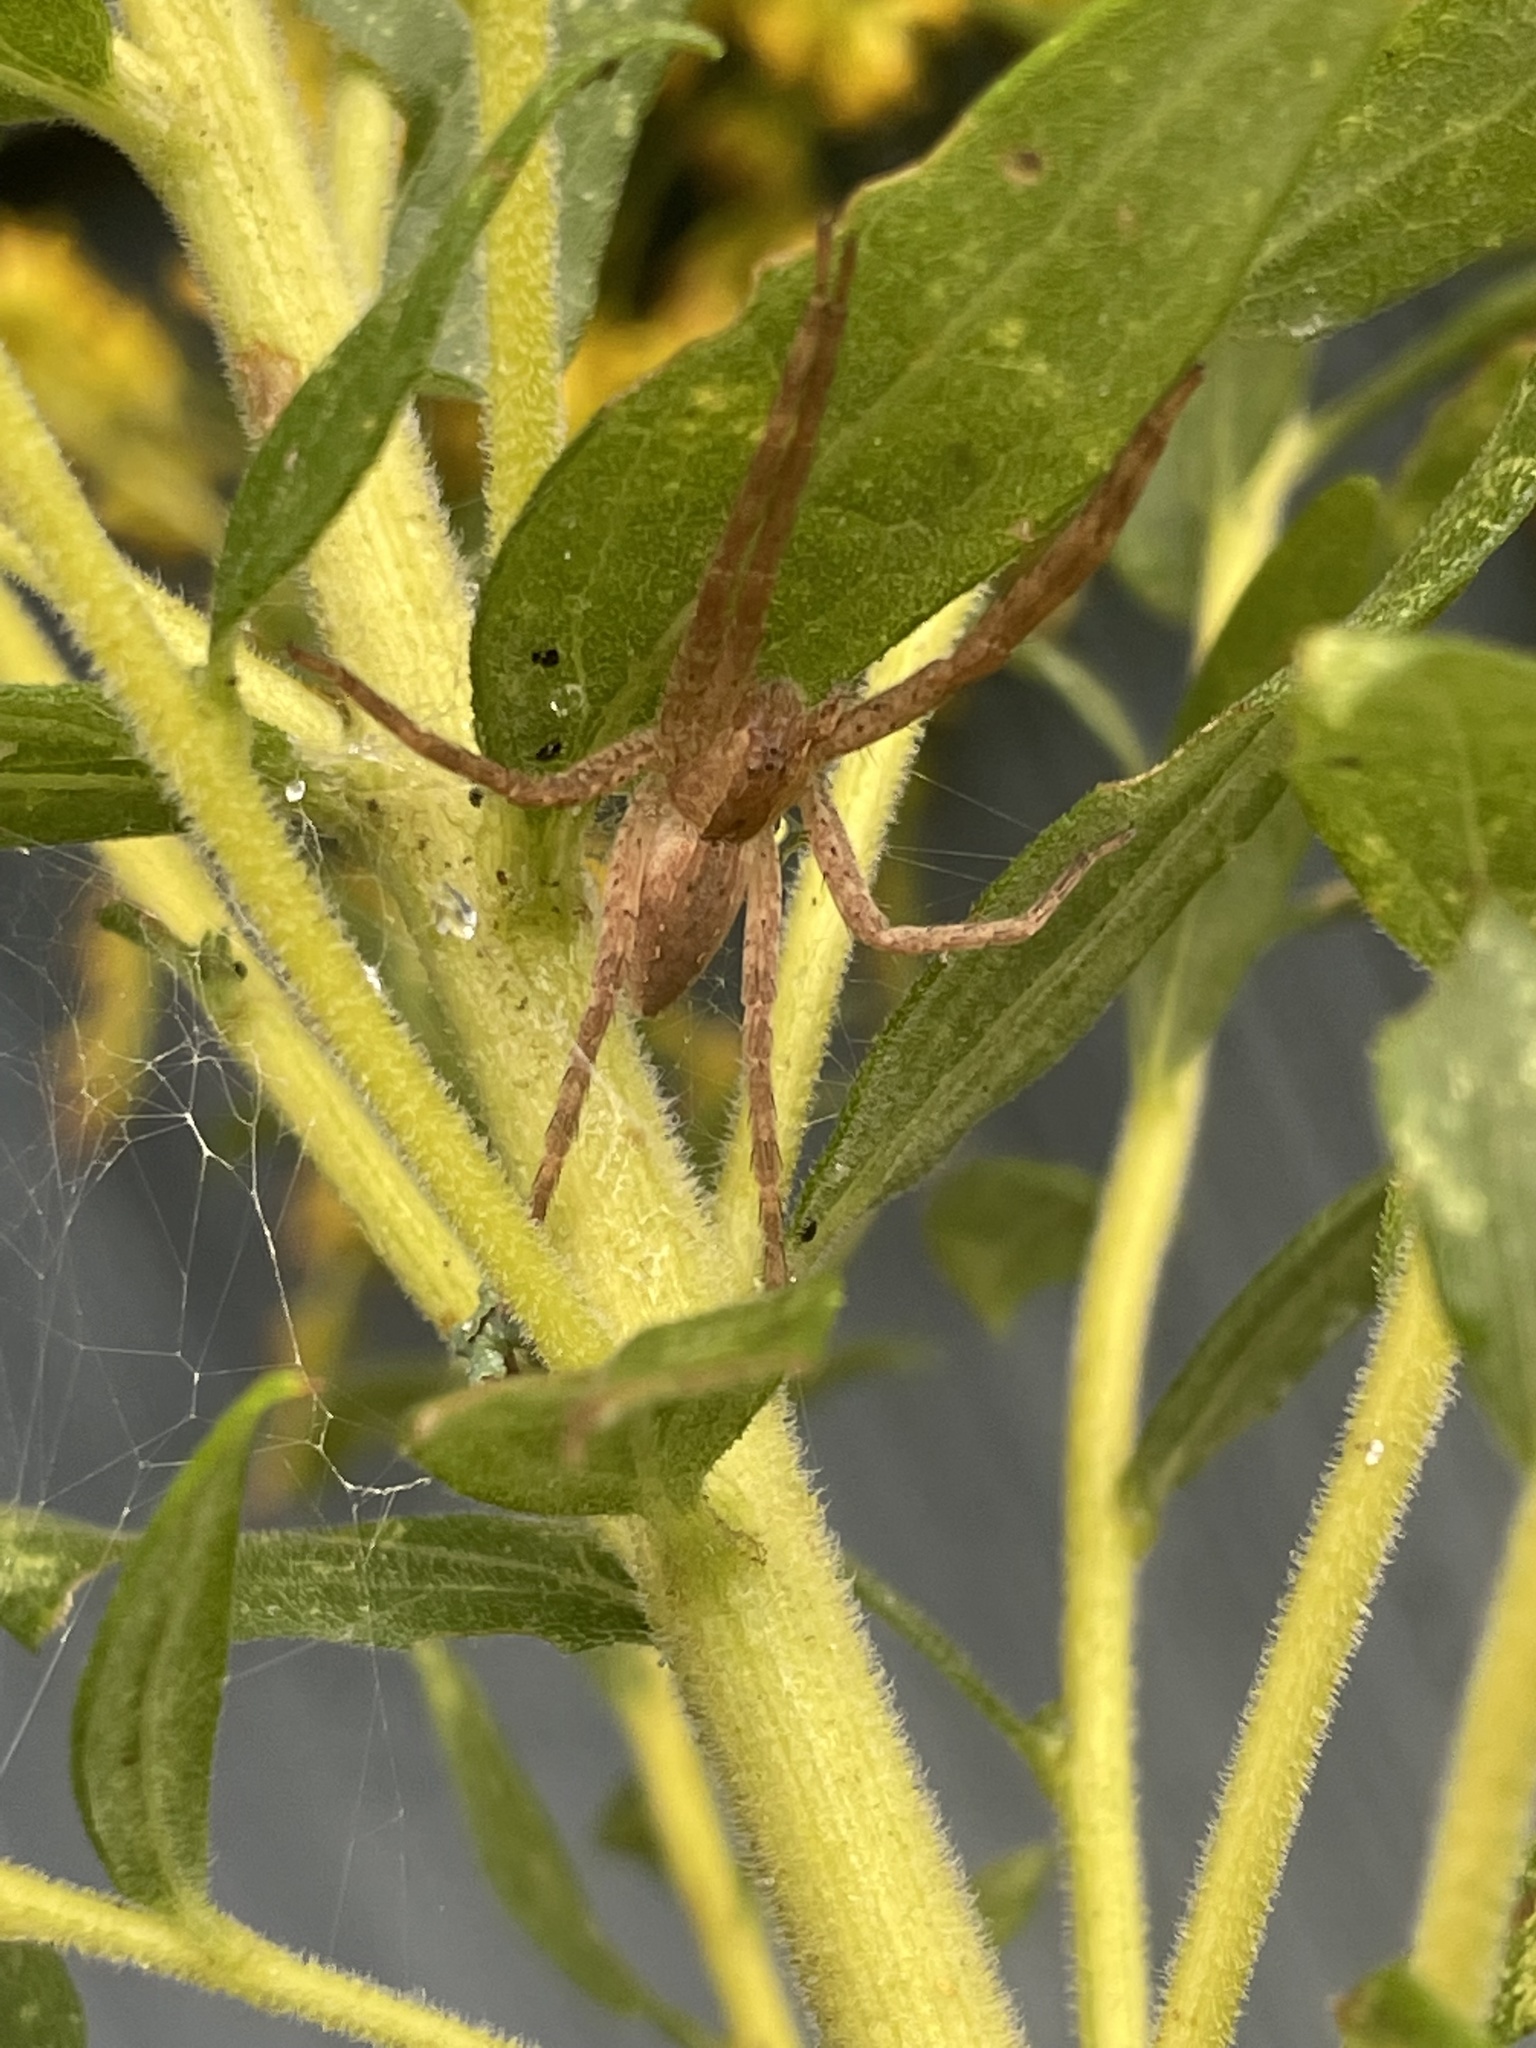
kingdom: Animalia
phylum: Arthropoda
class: Arachnida
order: Araneae
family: Pisauridae
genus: Pisaurina
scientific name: Pisaurina mira
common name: American nursery web spider
